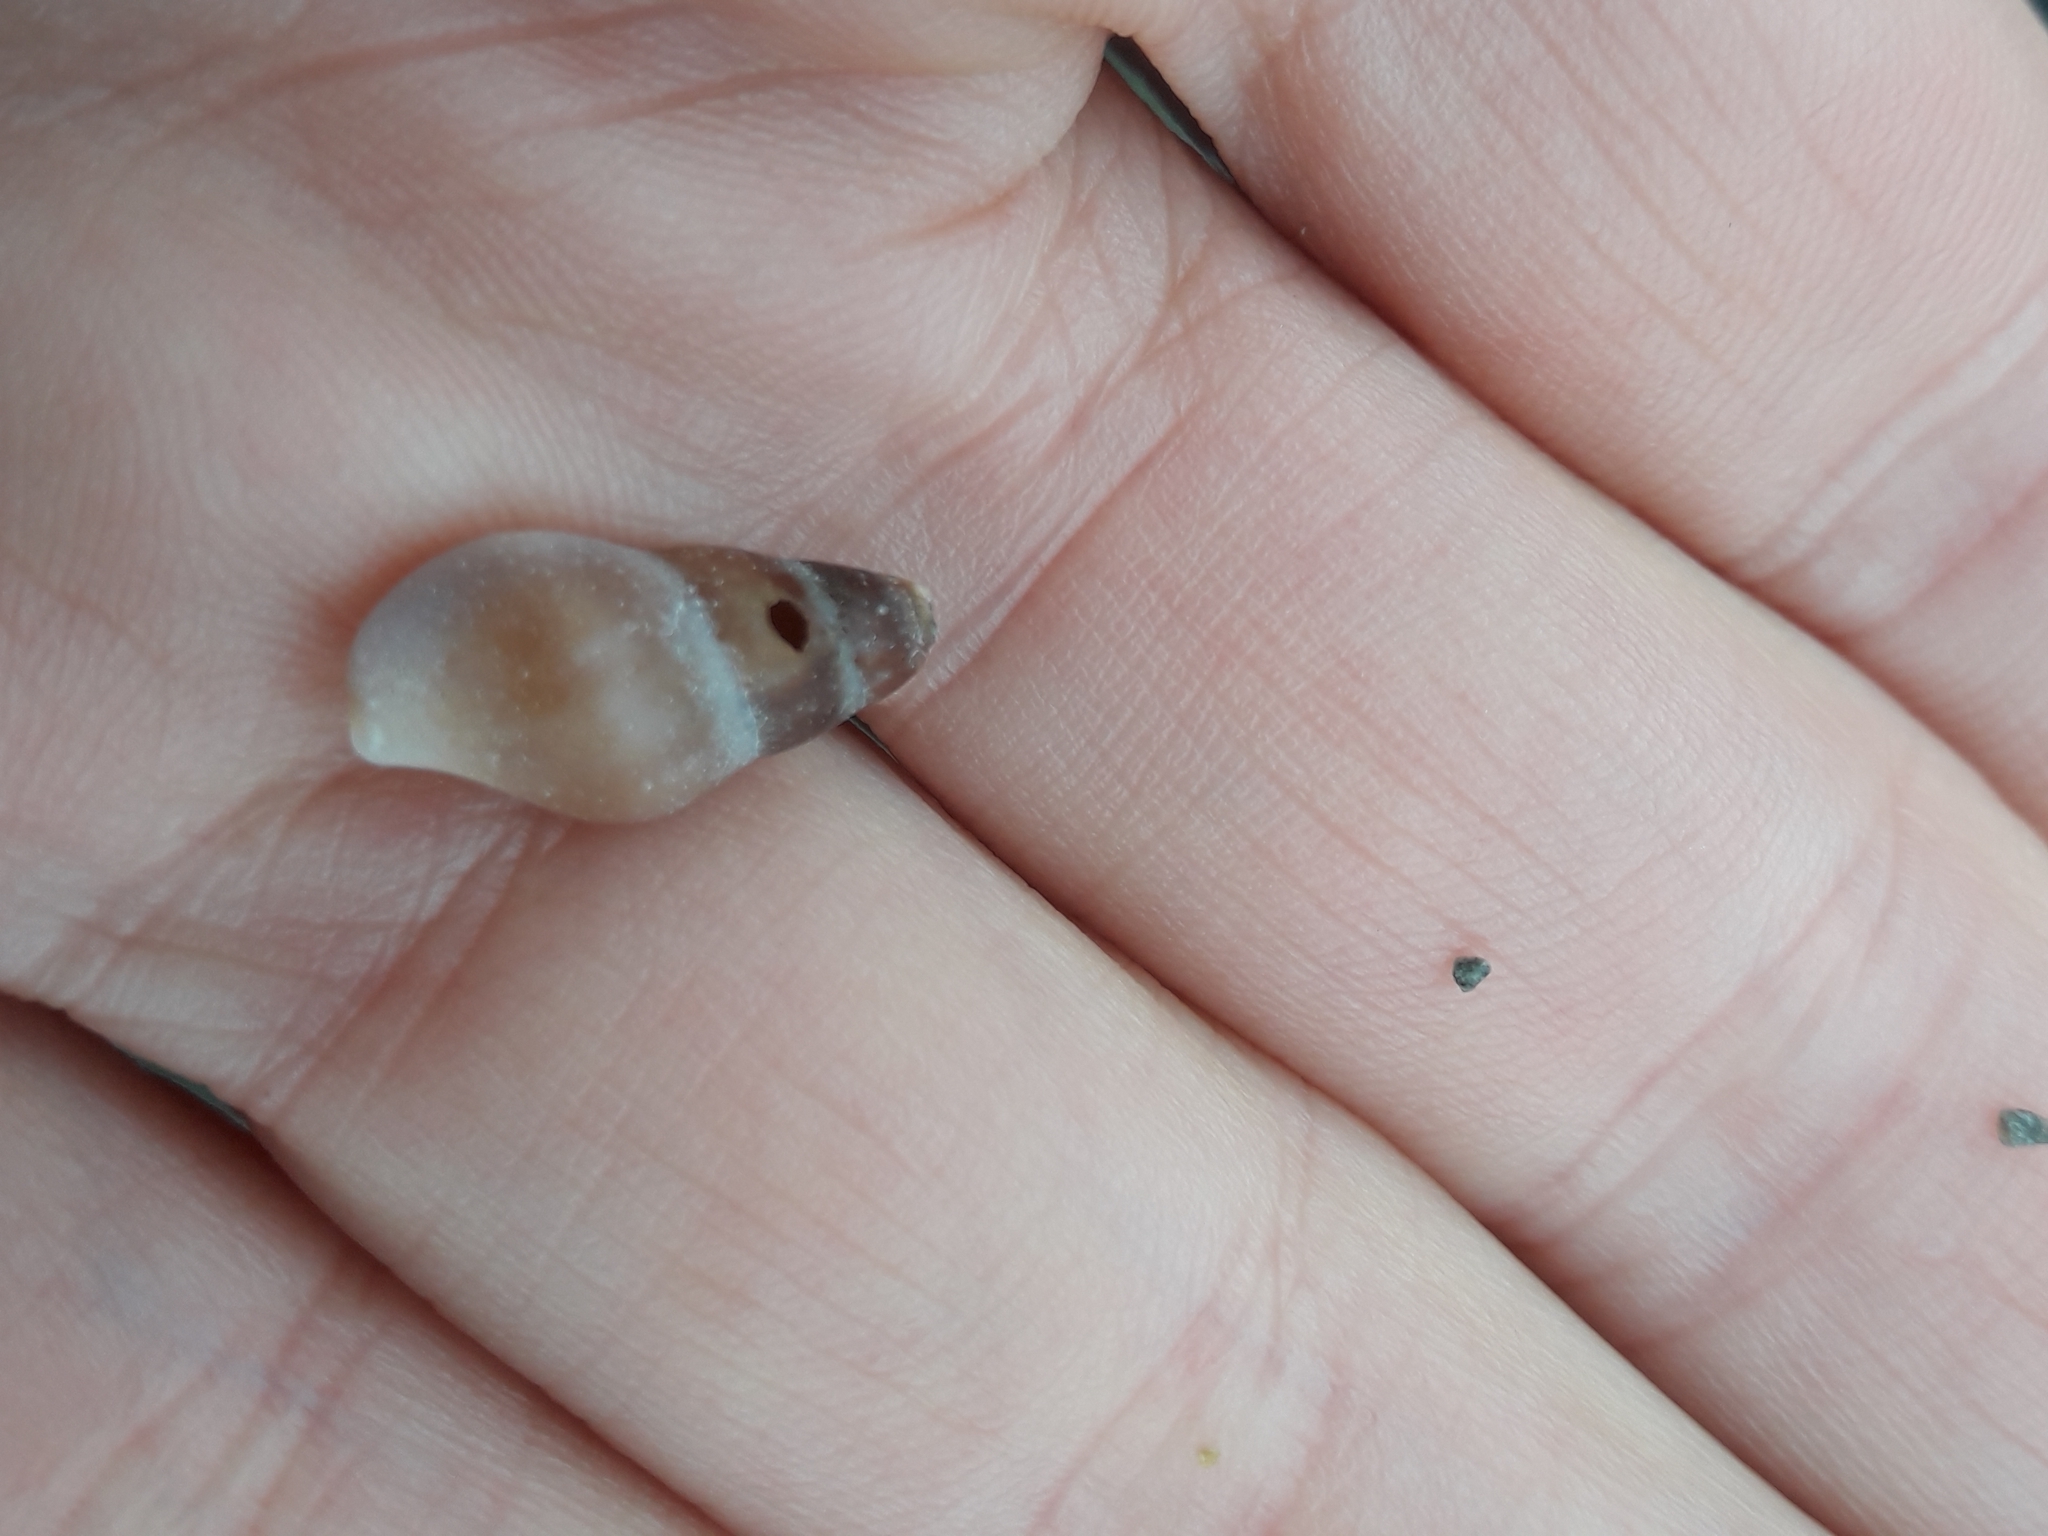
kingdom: Animalia
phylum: Mollusca
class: Gastropoda
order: Neogastropoda
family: Tudiclidae
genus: Buccinulum
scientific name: Buccinulum littorinoides
